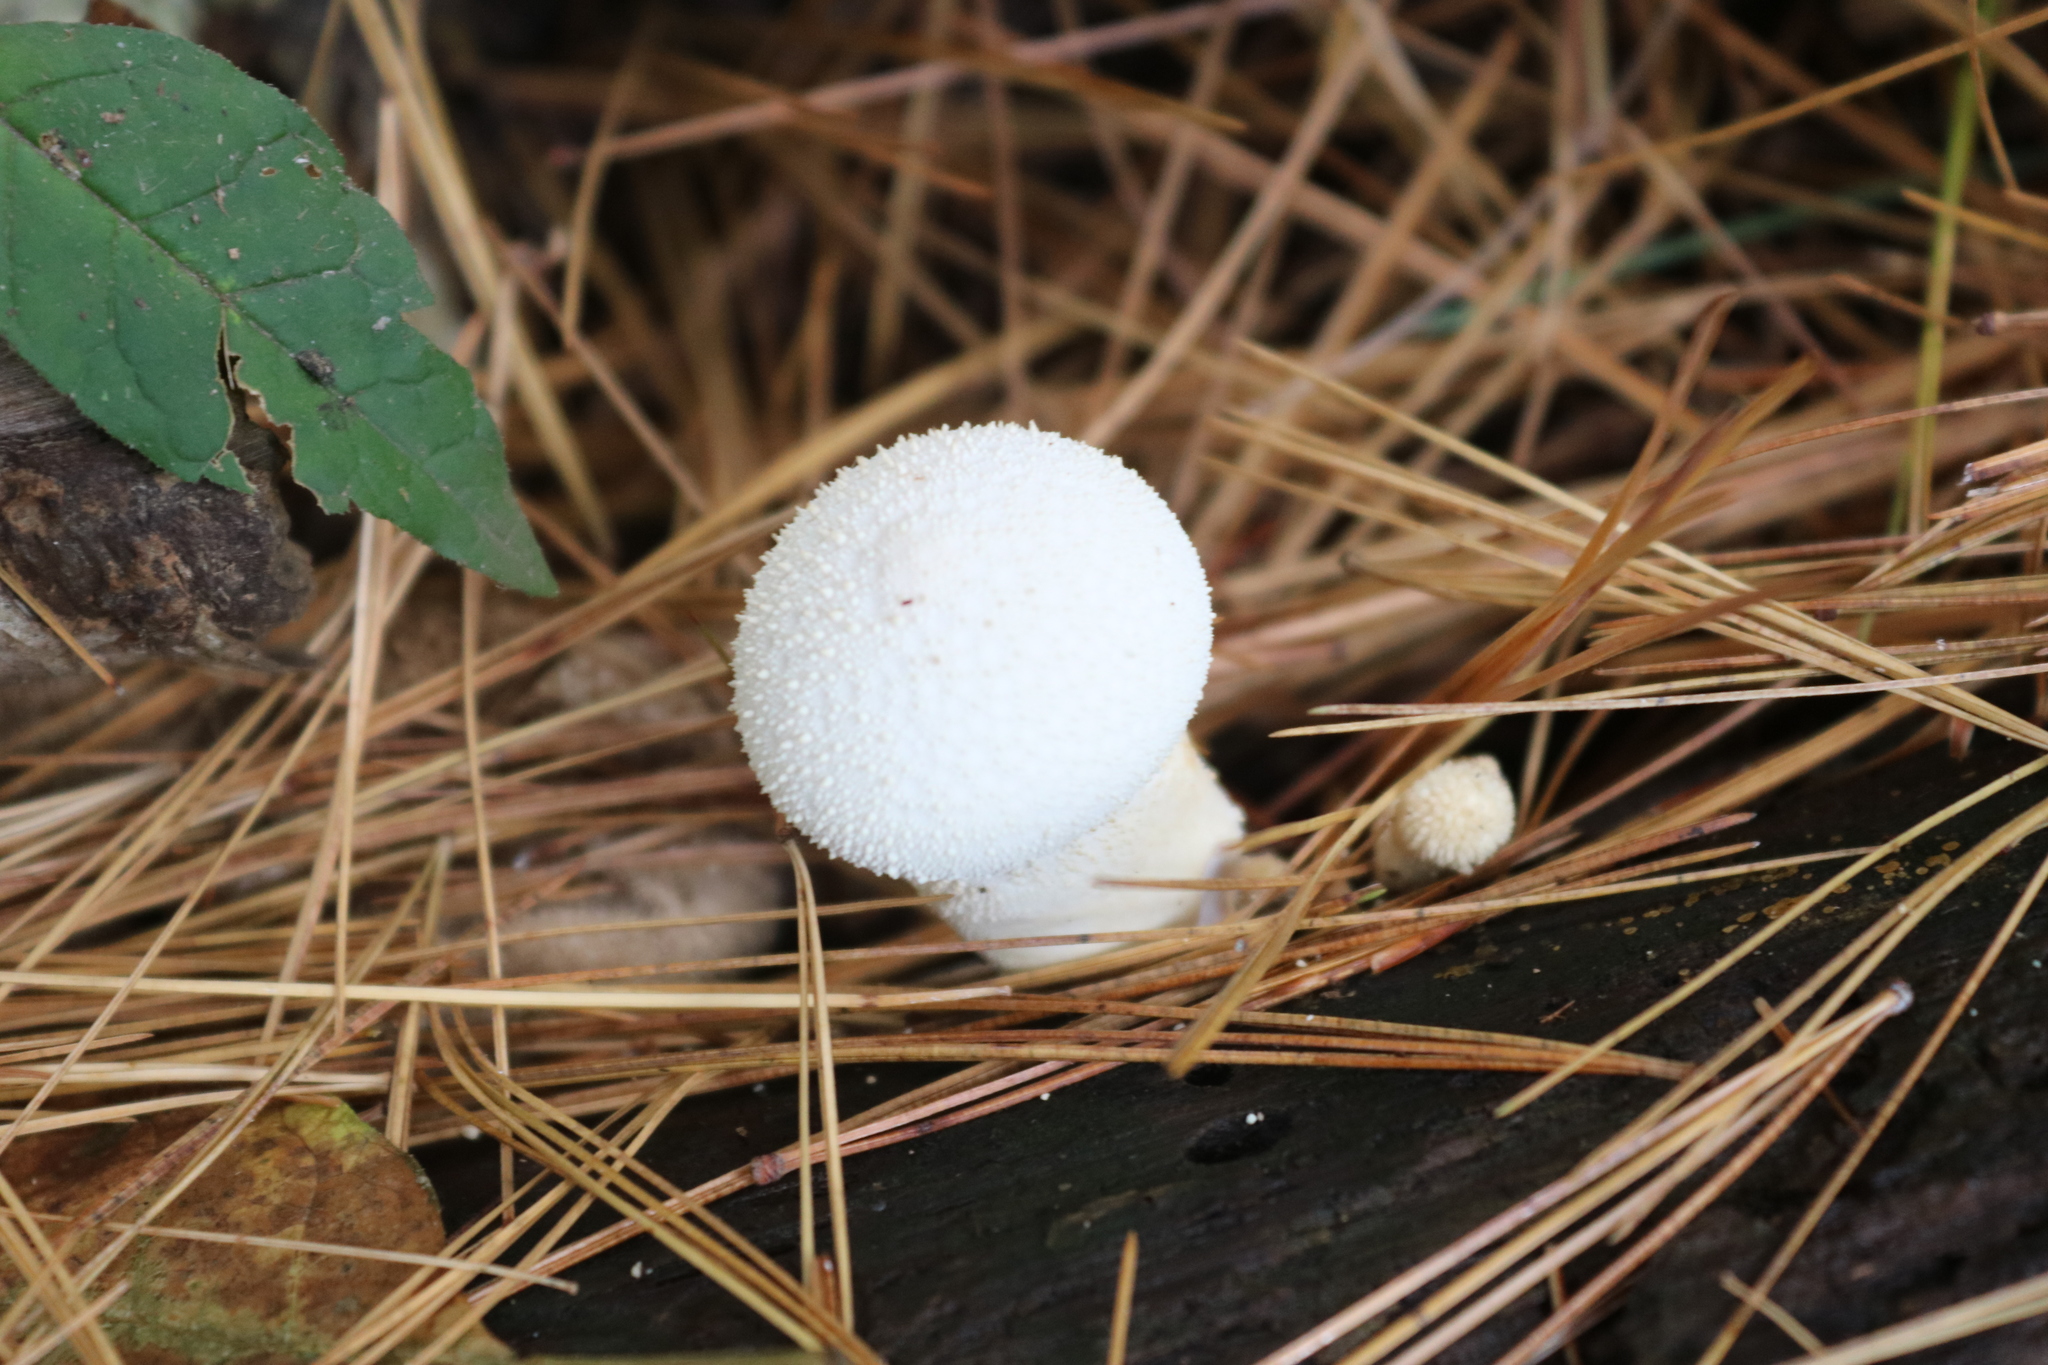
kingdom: Fungi
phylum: Basidiomycota
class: Agaricomycetes
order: Agaricales
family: Lycoperdaceae
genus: Lycoperdon
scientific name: Lycoperdon perlatum
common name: Common puffball
